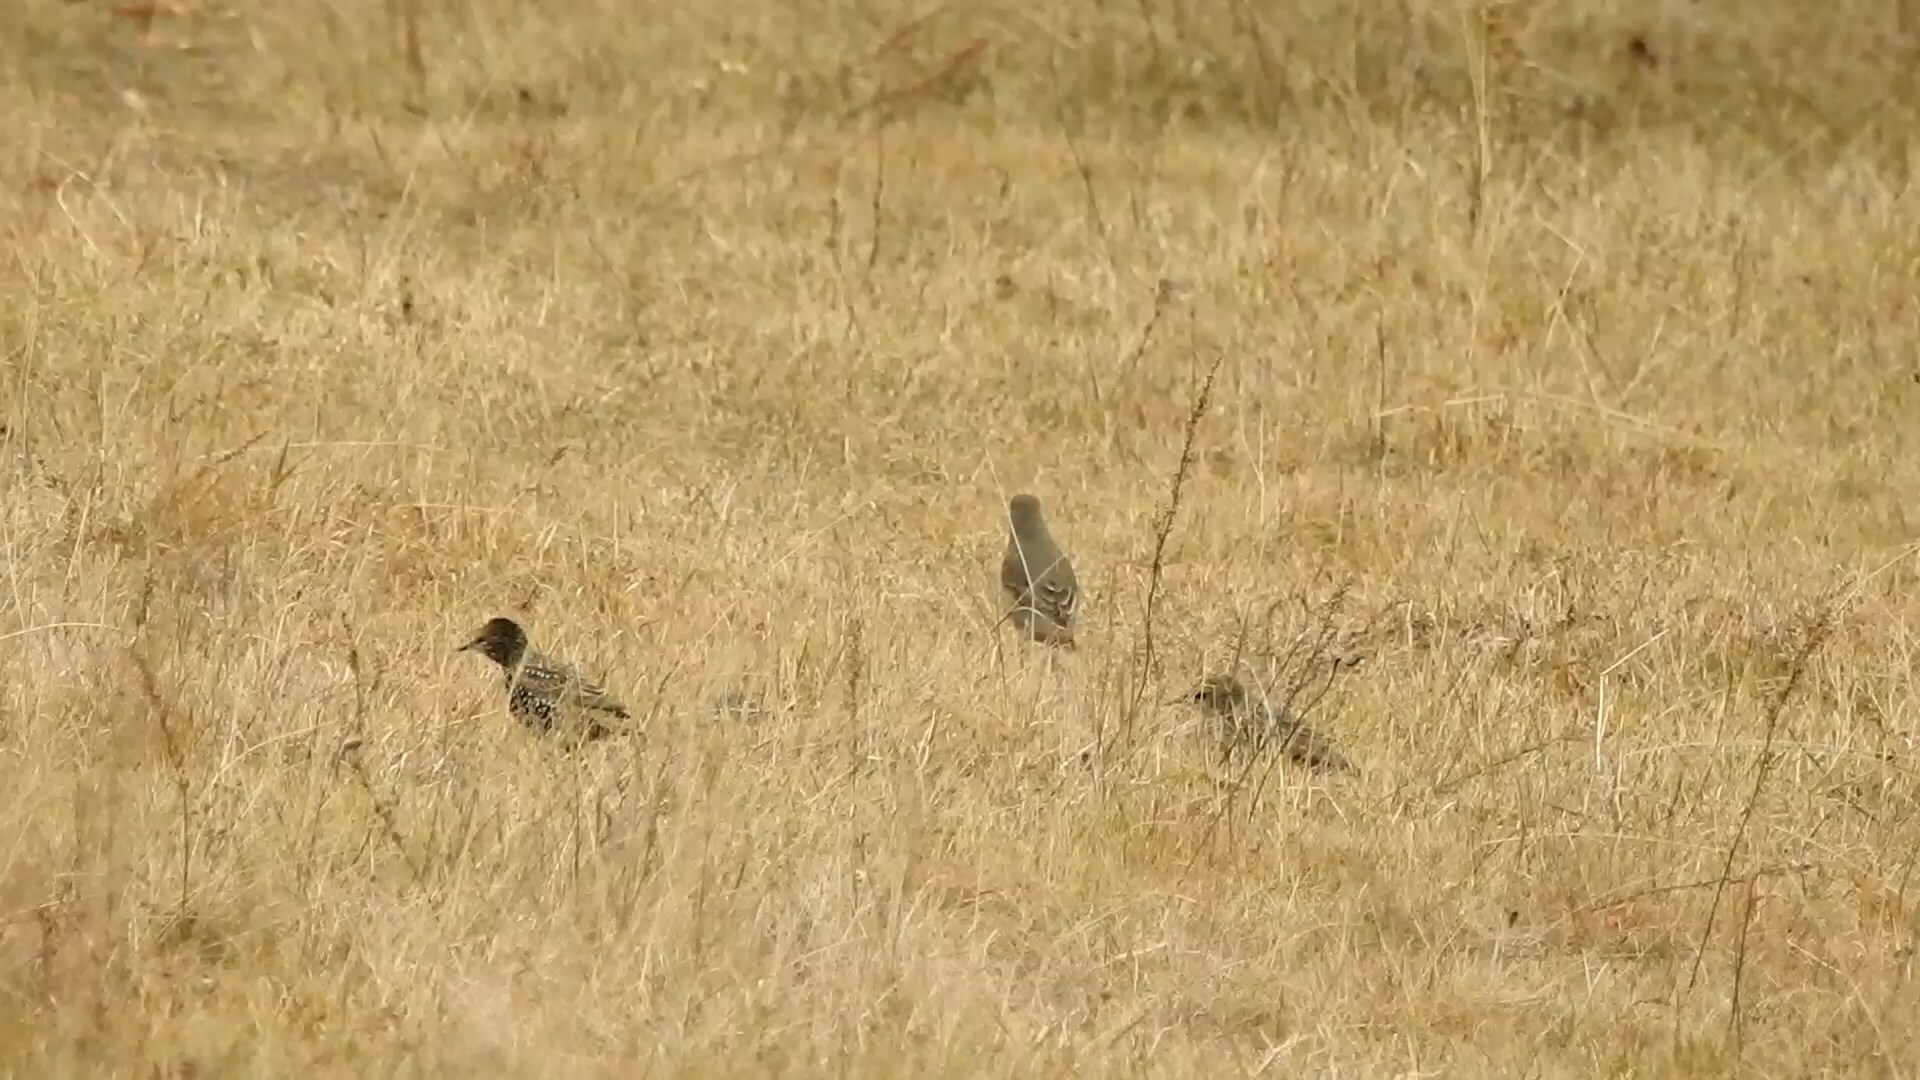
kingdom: Animalia
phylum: Chordata
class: Aves
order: Passeriformes
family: Sturnidae
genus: Sturnus
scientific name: Sturnus vulgaris
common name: Common starling
